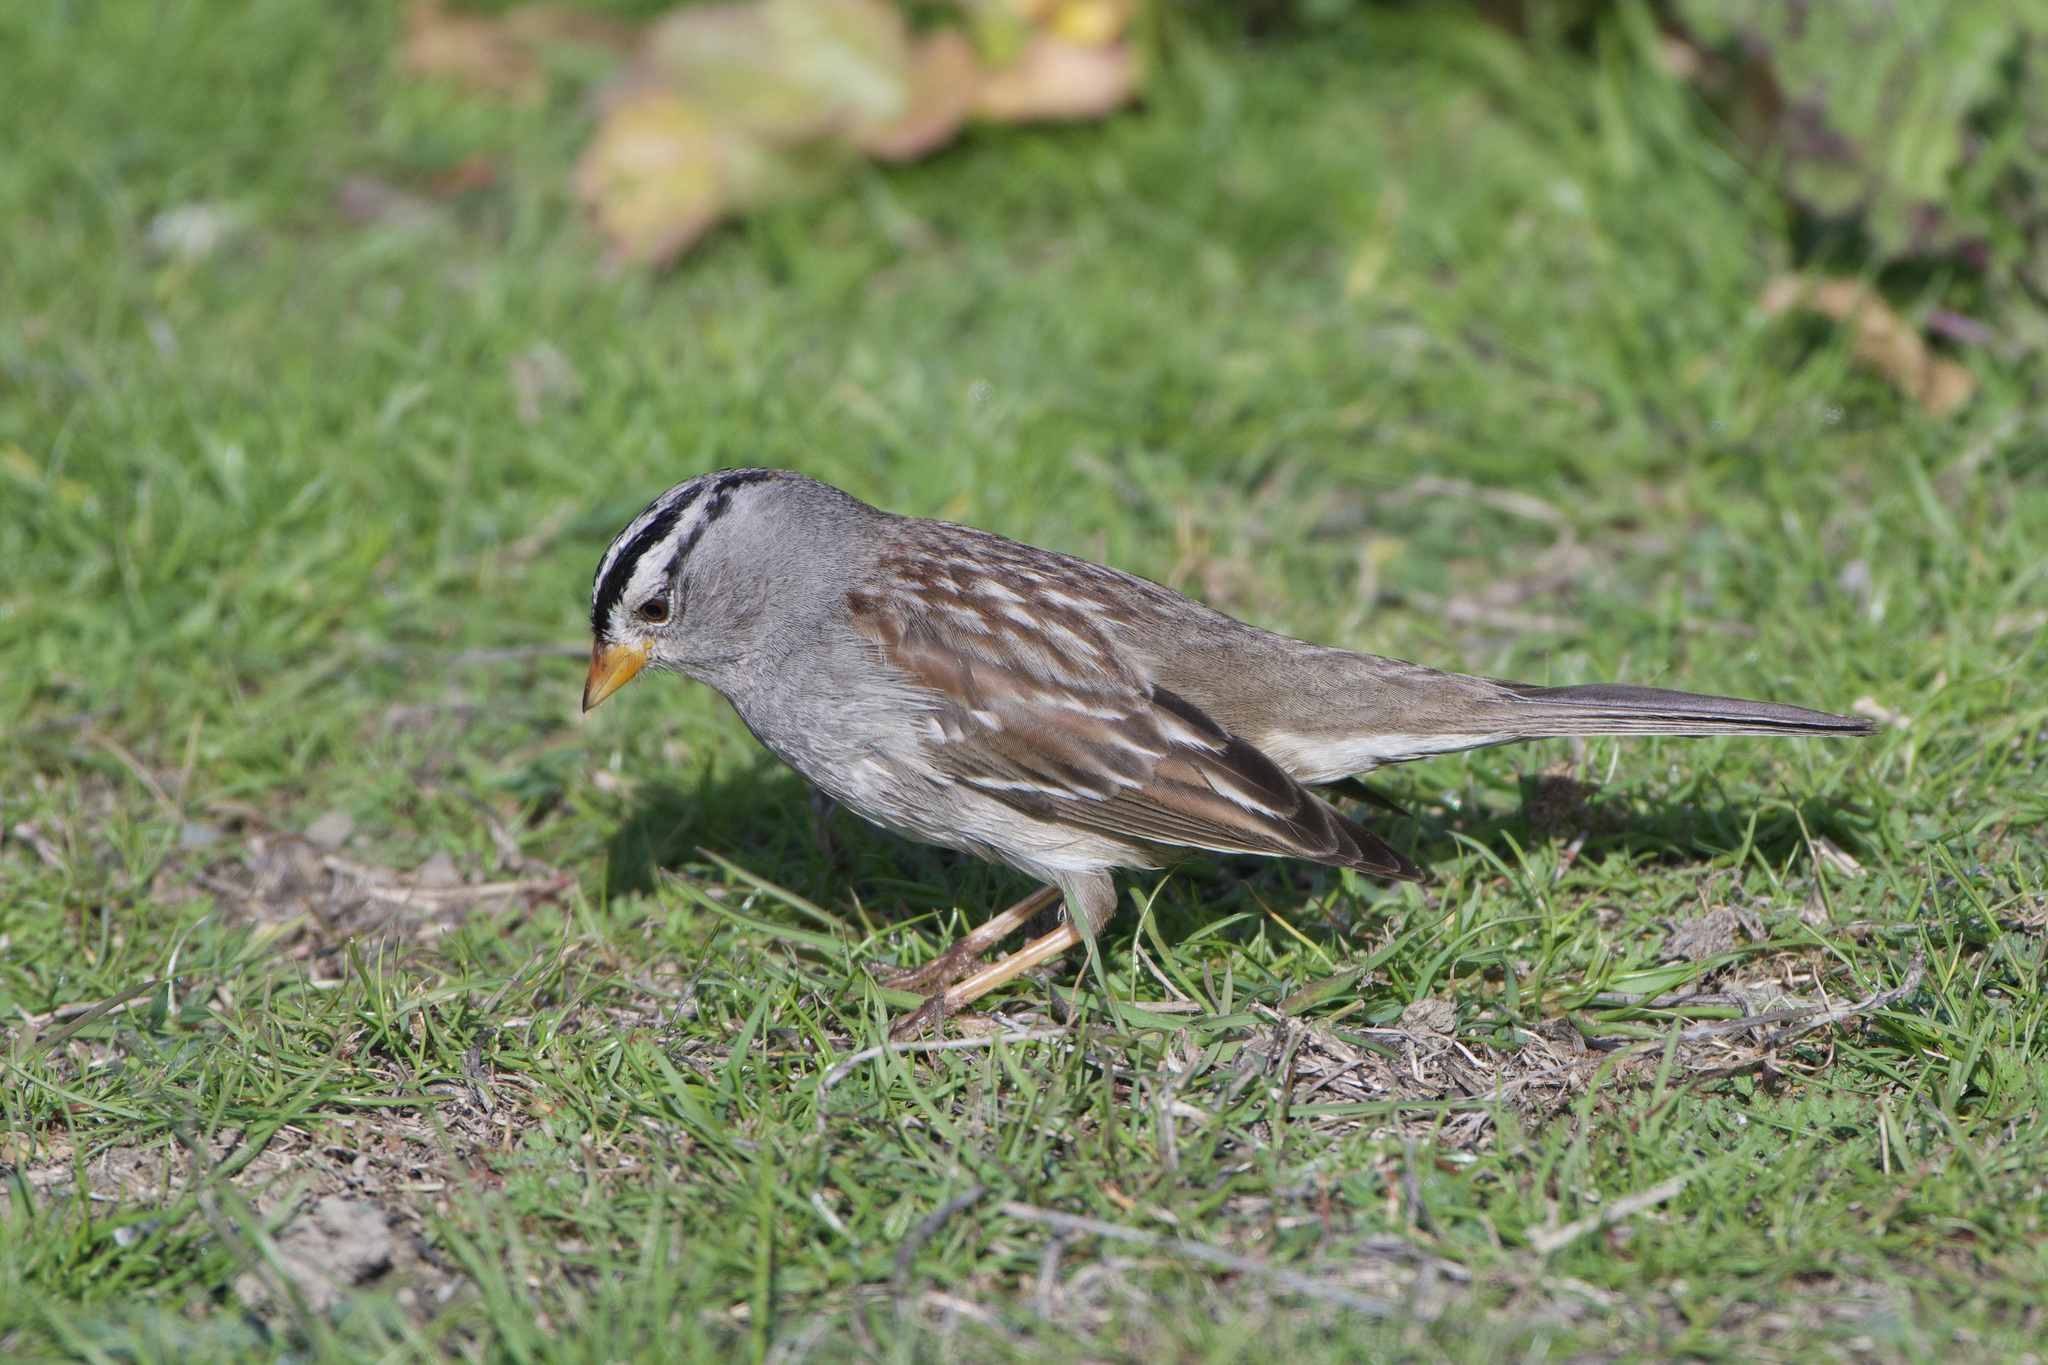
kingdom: Animalia
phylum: Chordata
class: Aves
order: Passeriformes
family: Passerellidae
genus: Zonotrichia
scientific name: Zonotrichia leucophrys
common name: White-crowned sparrow
